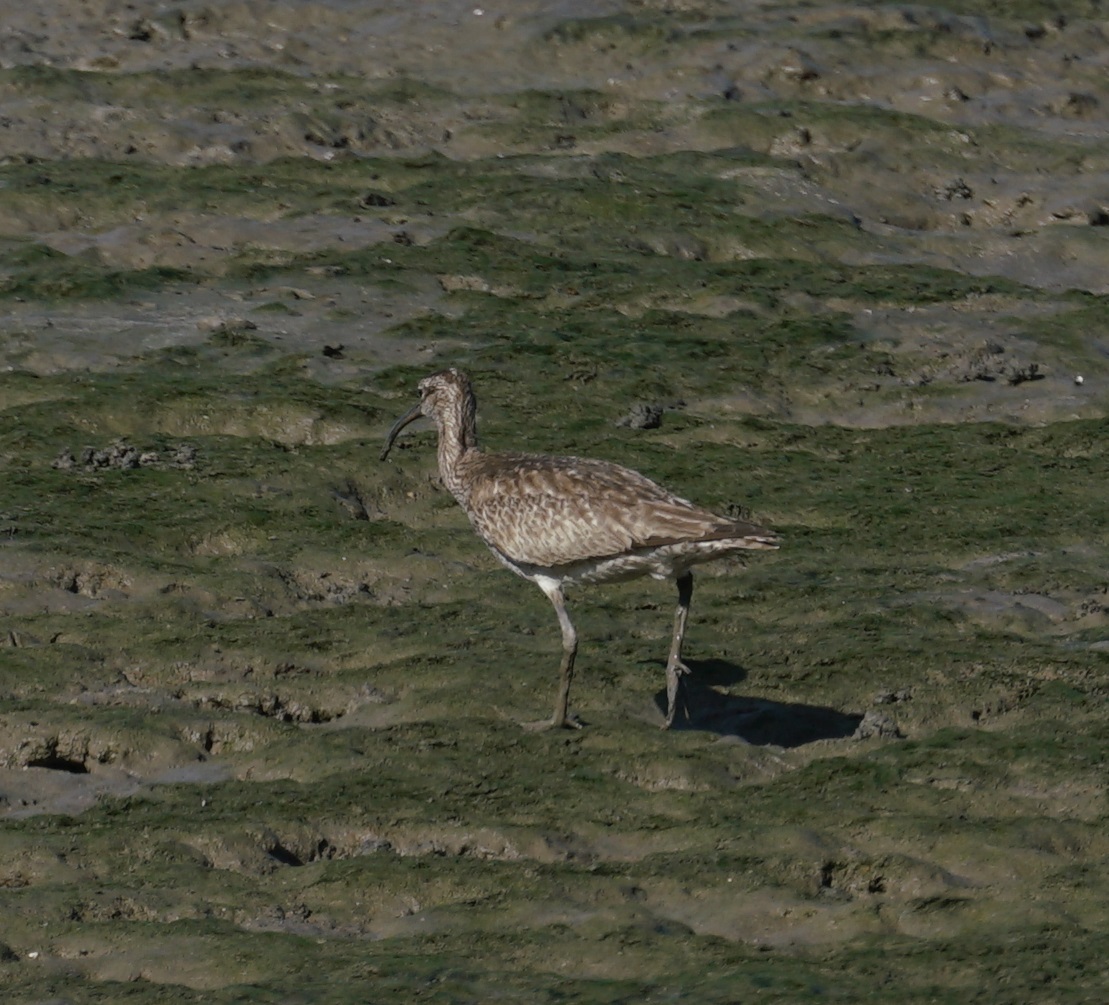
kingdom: Animalia
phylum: Chordata
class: Aves
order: Charadriiformes
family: Scolopacidae
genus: Numenius
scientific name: Numenius phaeopus
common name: Whimbrel
